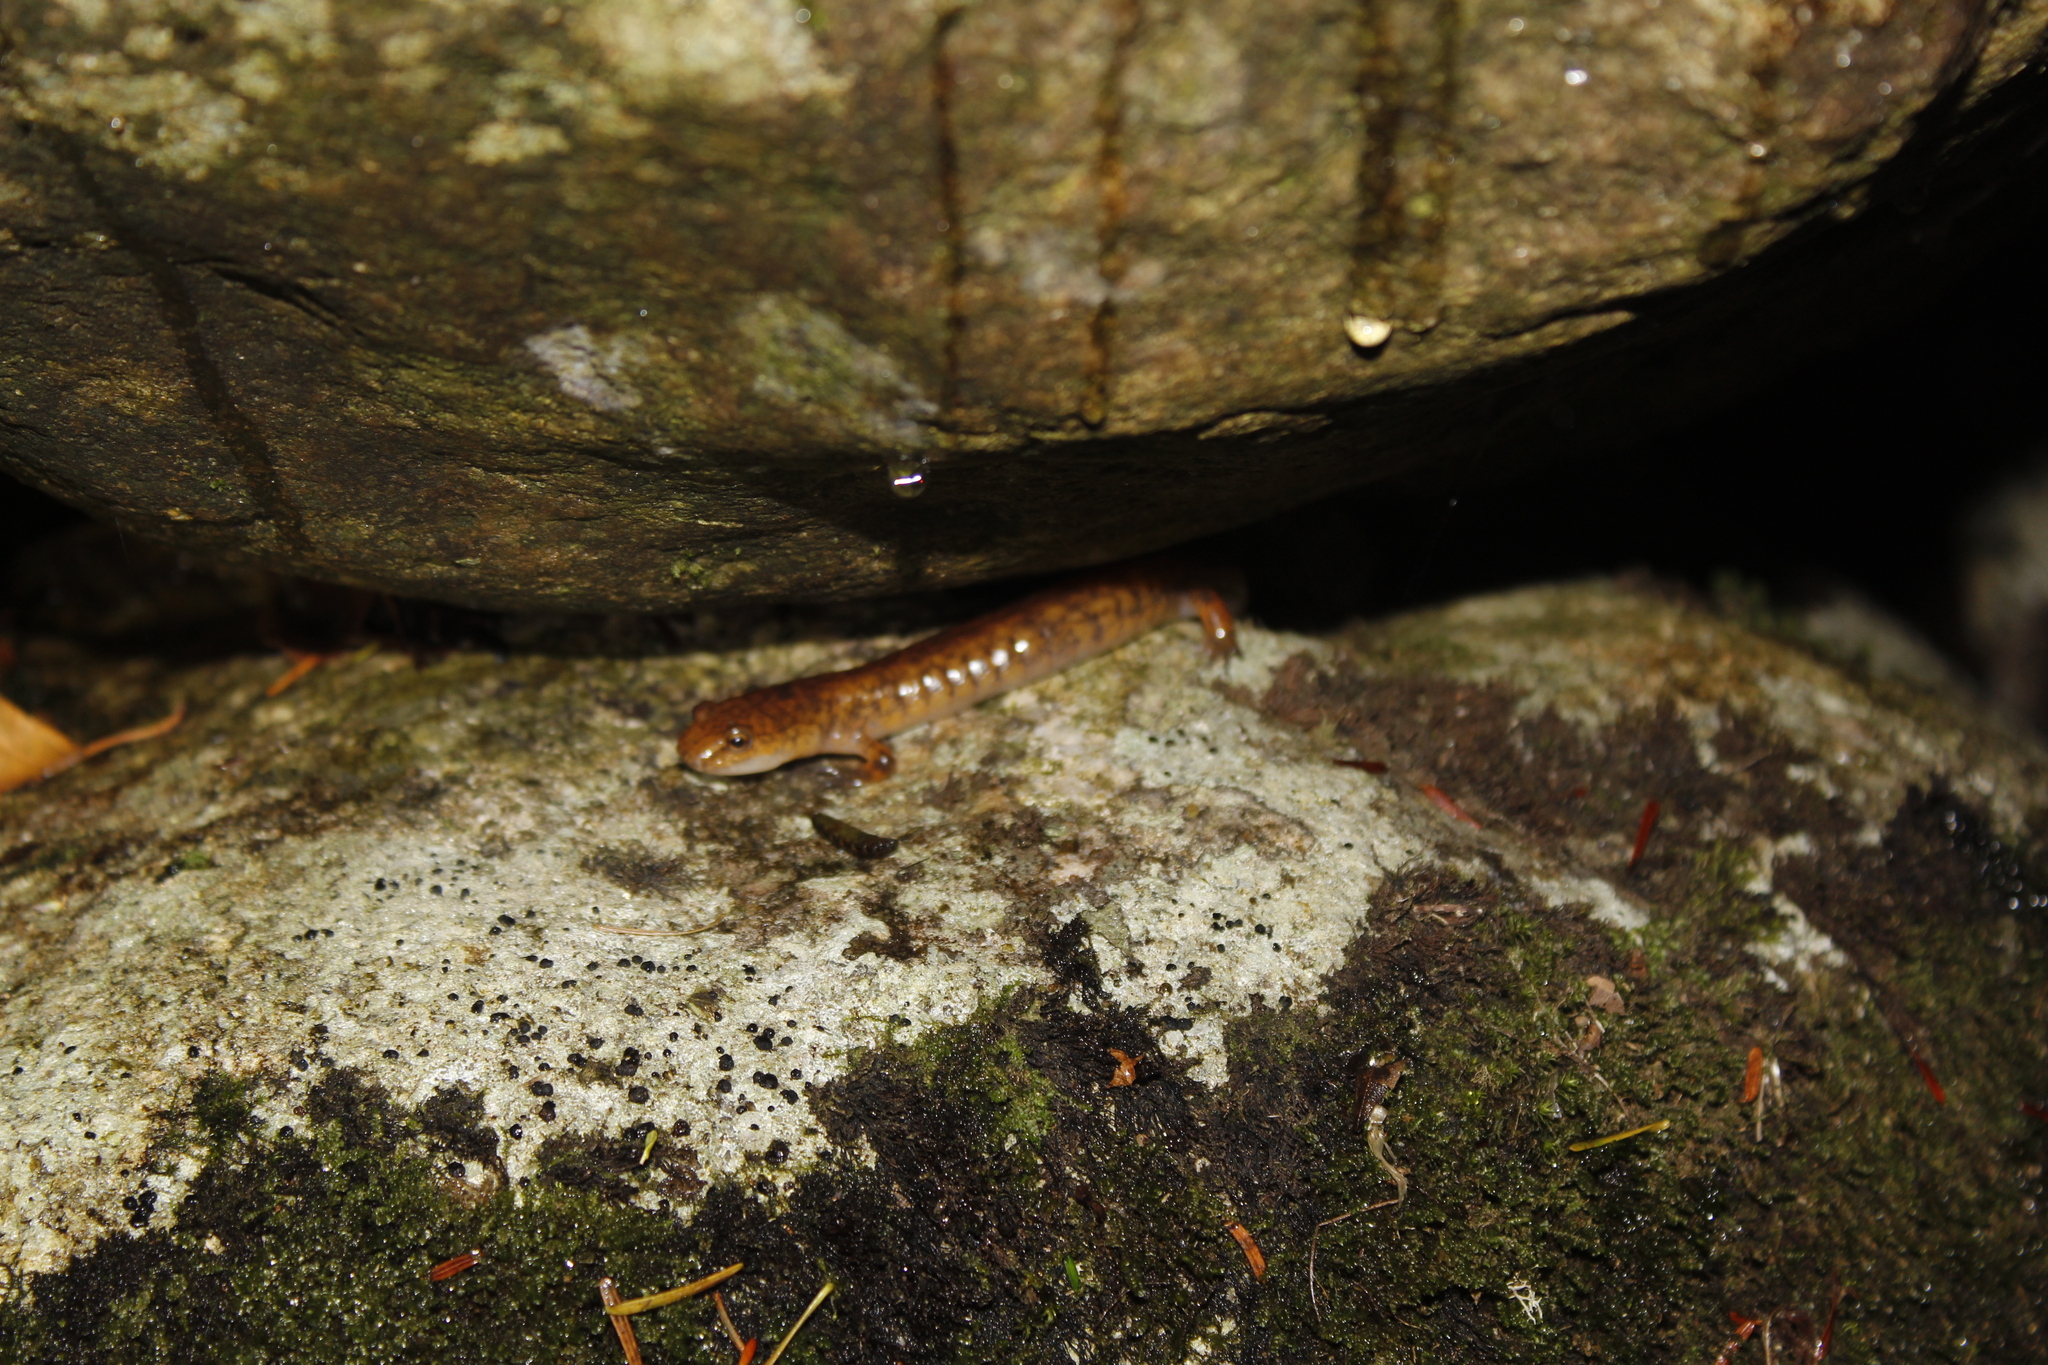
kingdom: Animalia
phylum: Chordata
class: Amphibia
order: Caudata
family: Plethodontidae
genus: Gyrinophilus
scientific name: Gyrinophilus porphyriticus
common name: Spring salamander
